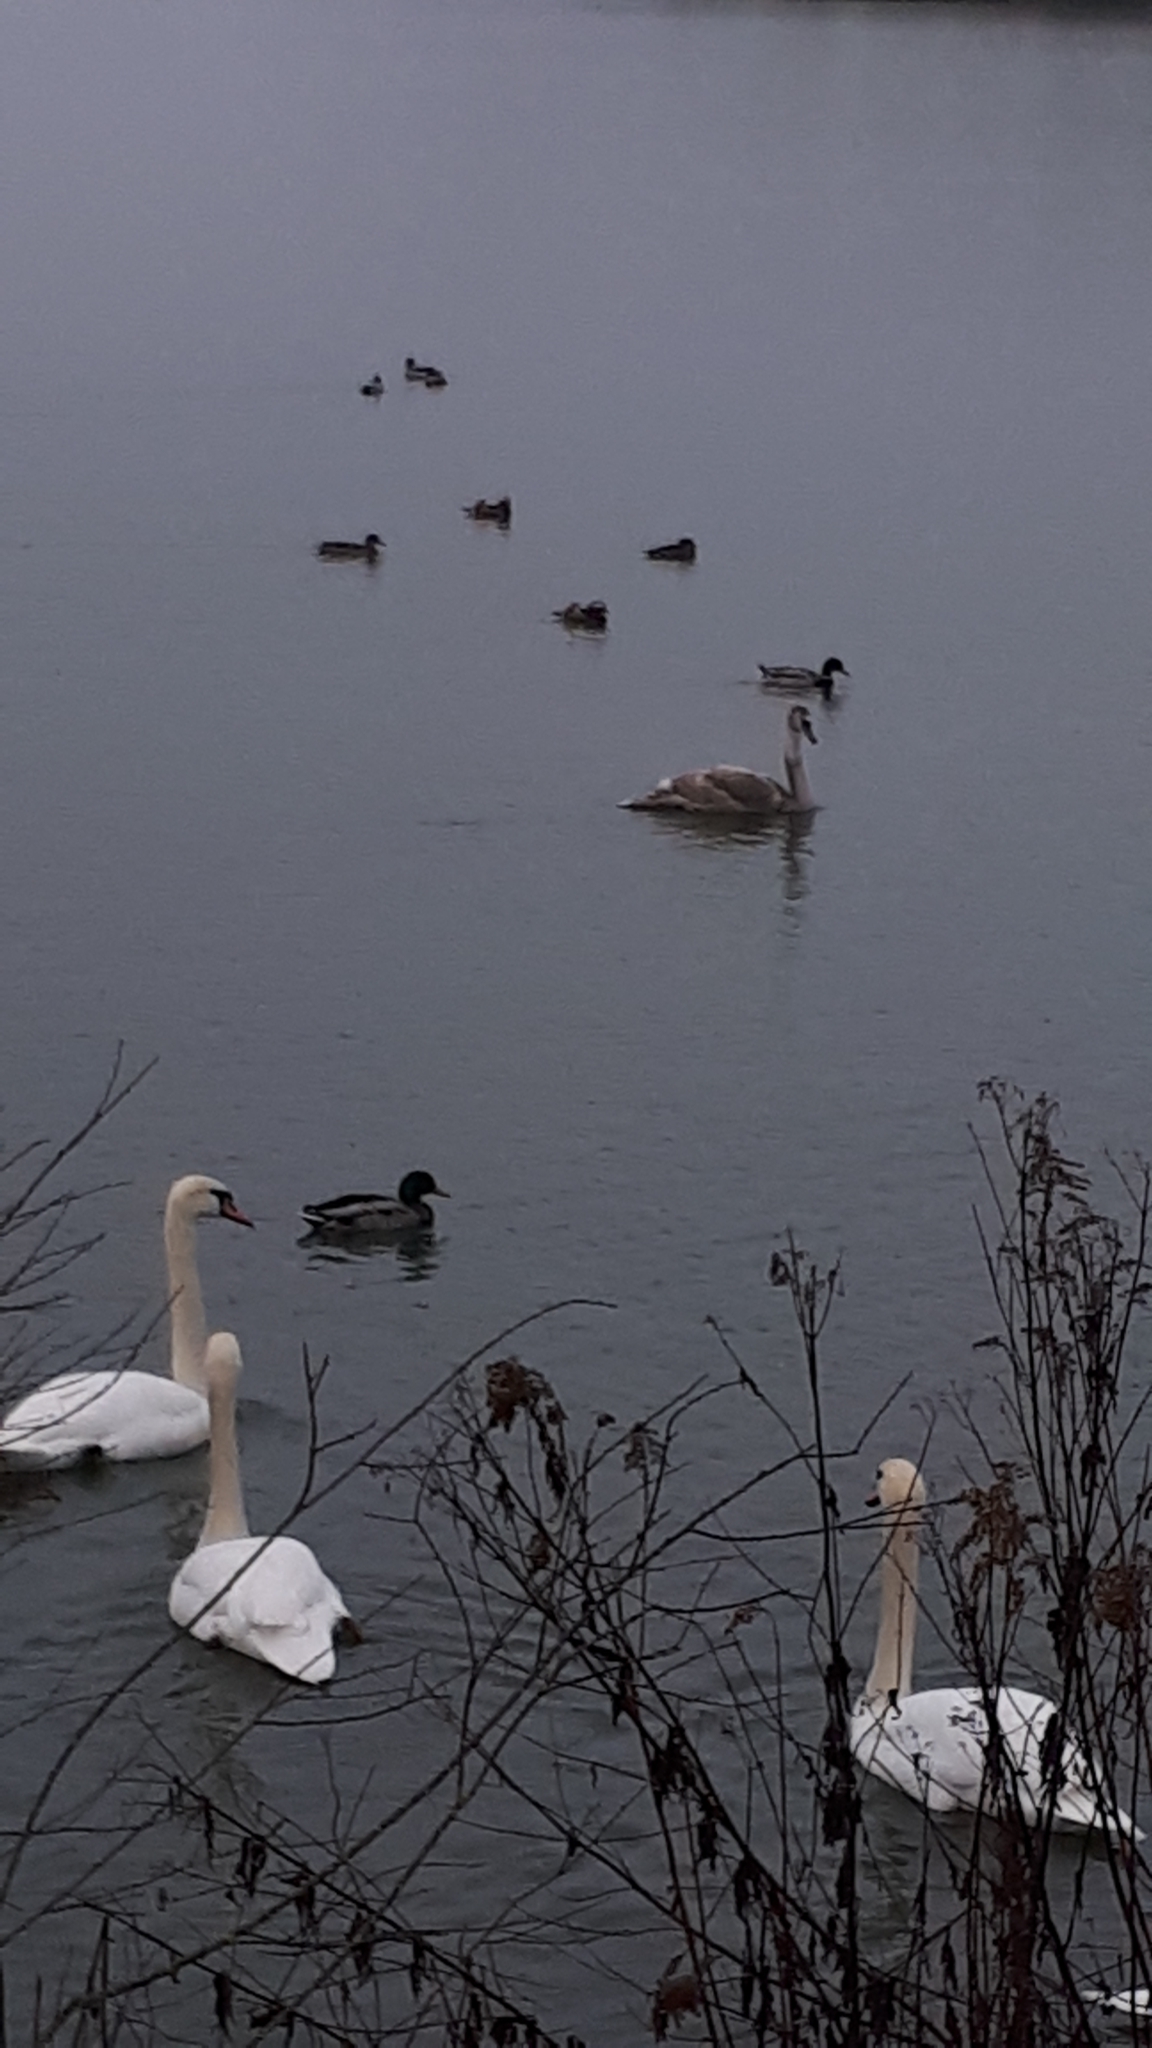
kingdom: Animalia
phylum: Chordata
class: Aves
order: Anseriformes
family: Anatidae
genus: Aix
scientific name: Aix galericulata
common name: Mandarin duck
